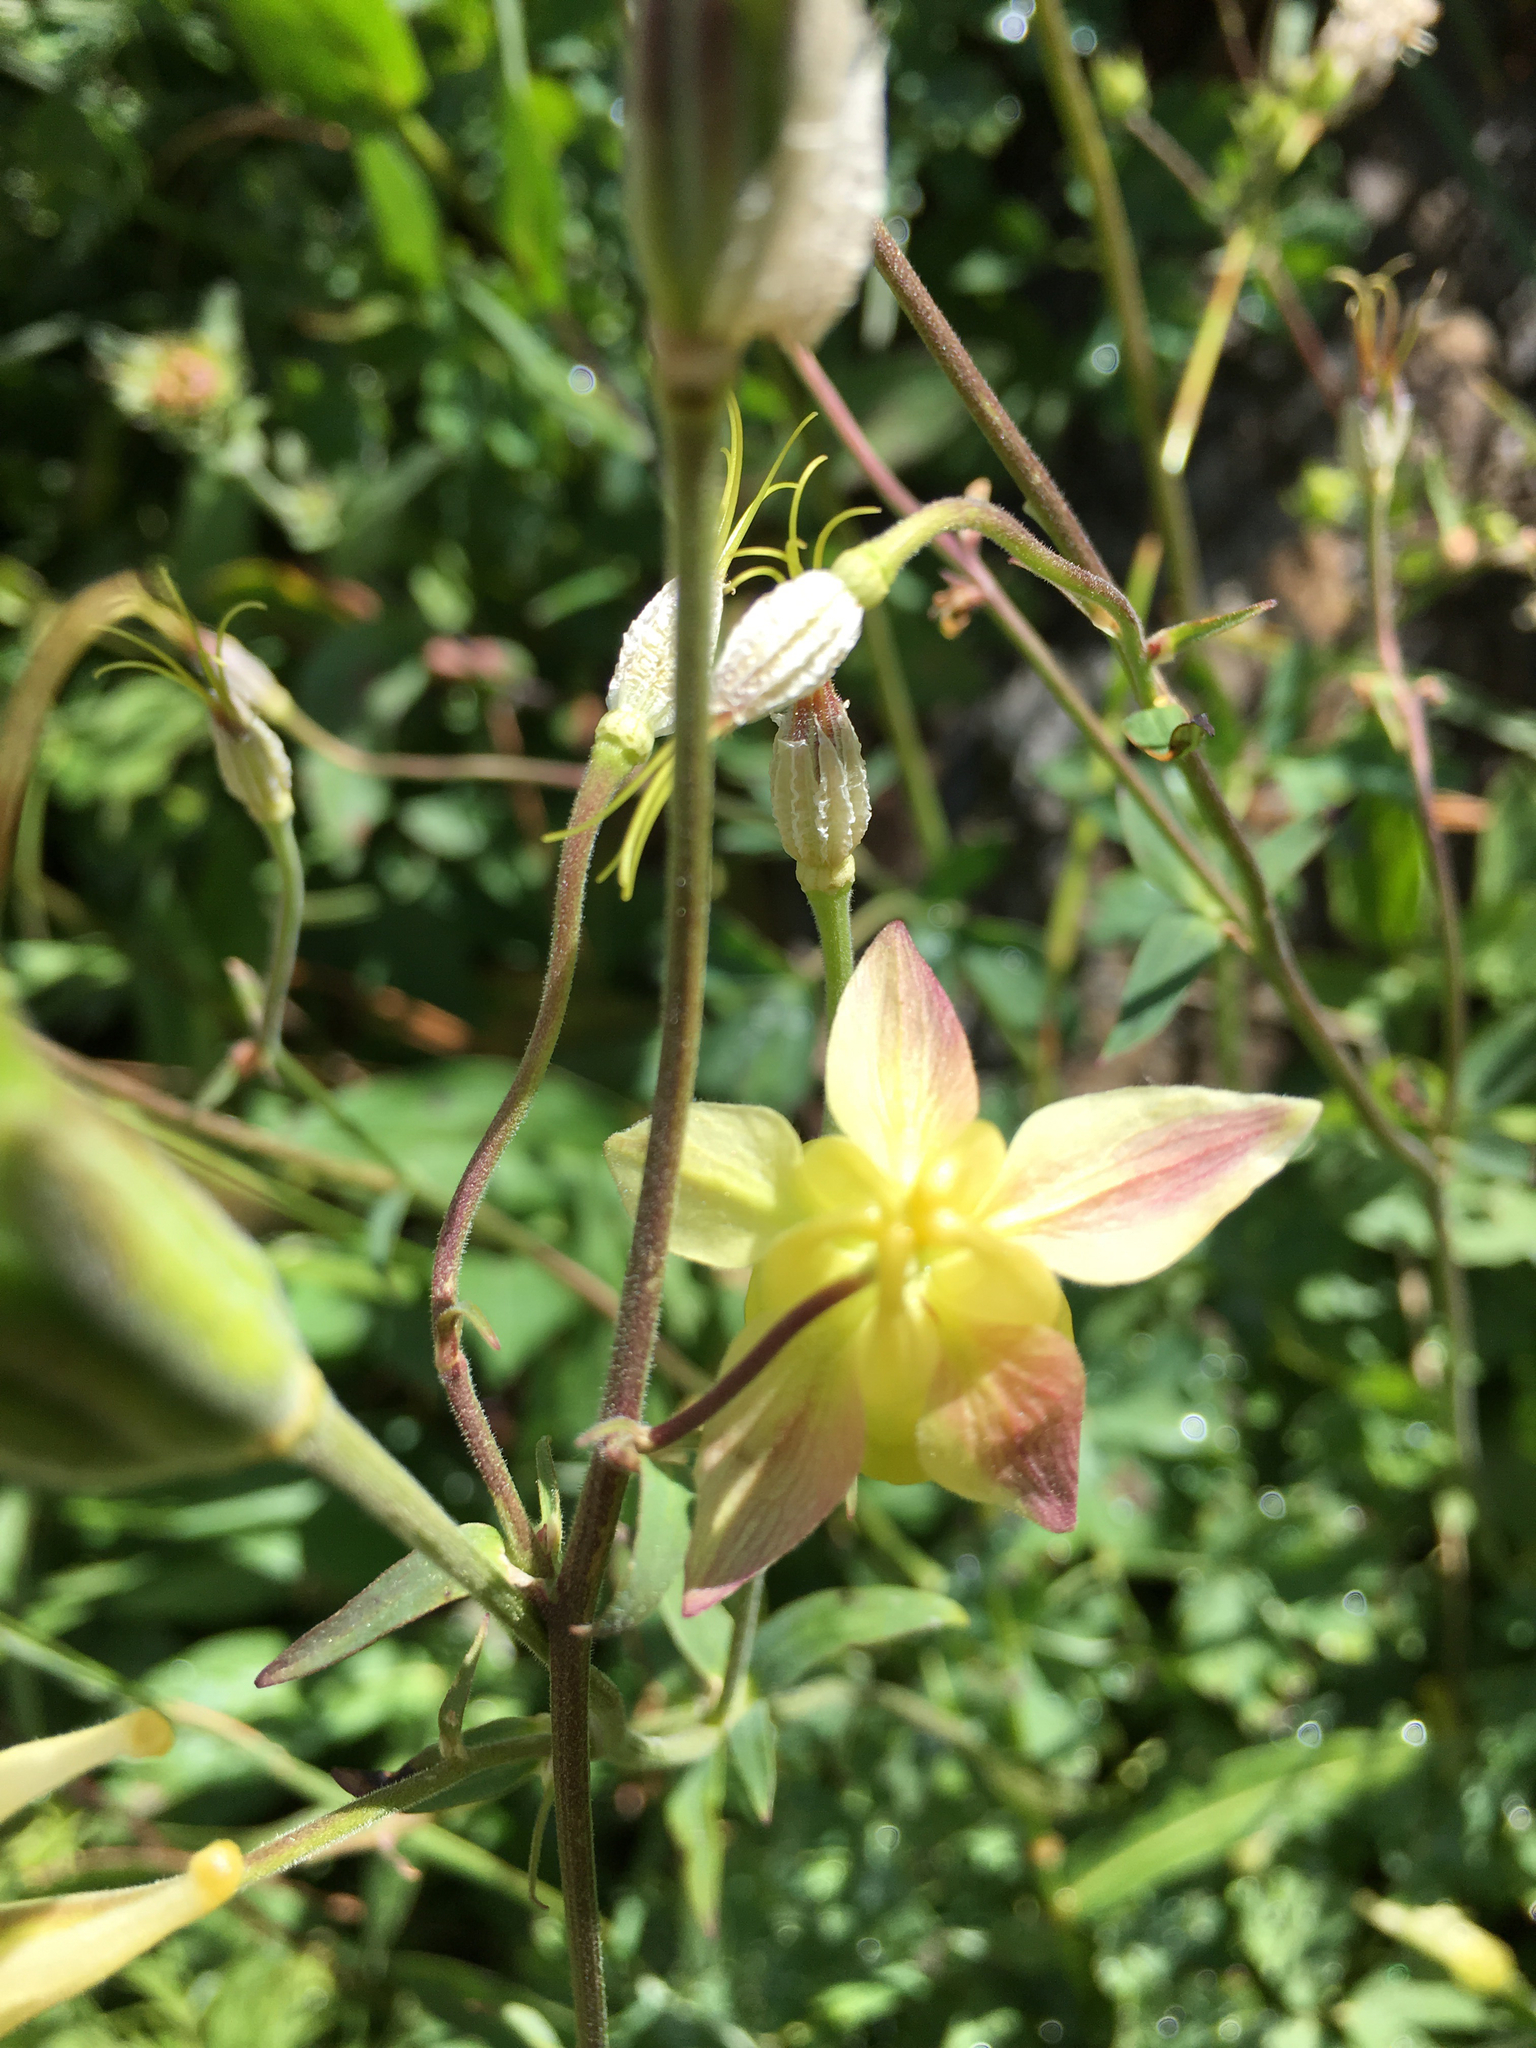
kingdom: Plantae
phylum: Tracheophyta
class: Magnoliopsida
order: Ranunculales
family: Ranunculaceae
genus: Aquilegia
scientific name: Aquilegia flavescens
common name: Yellow columbine
